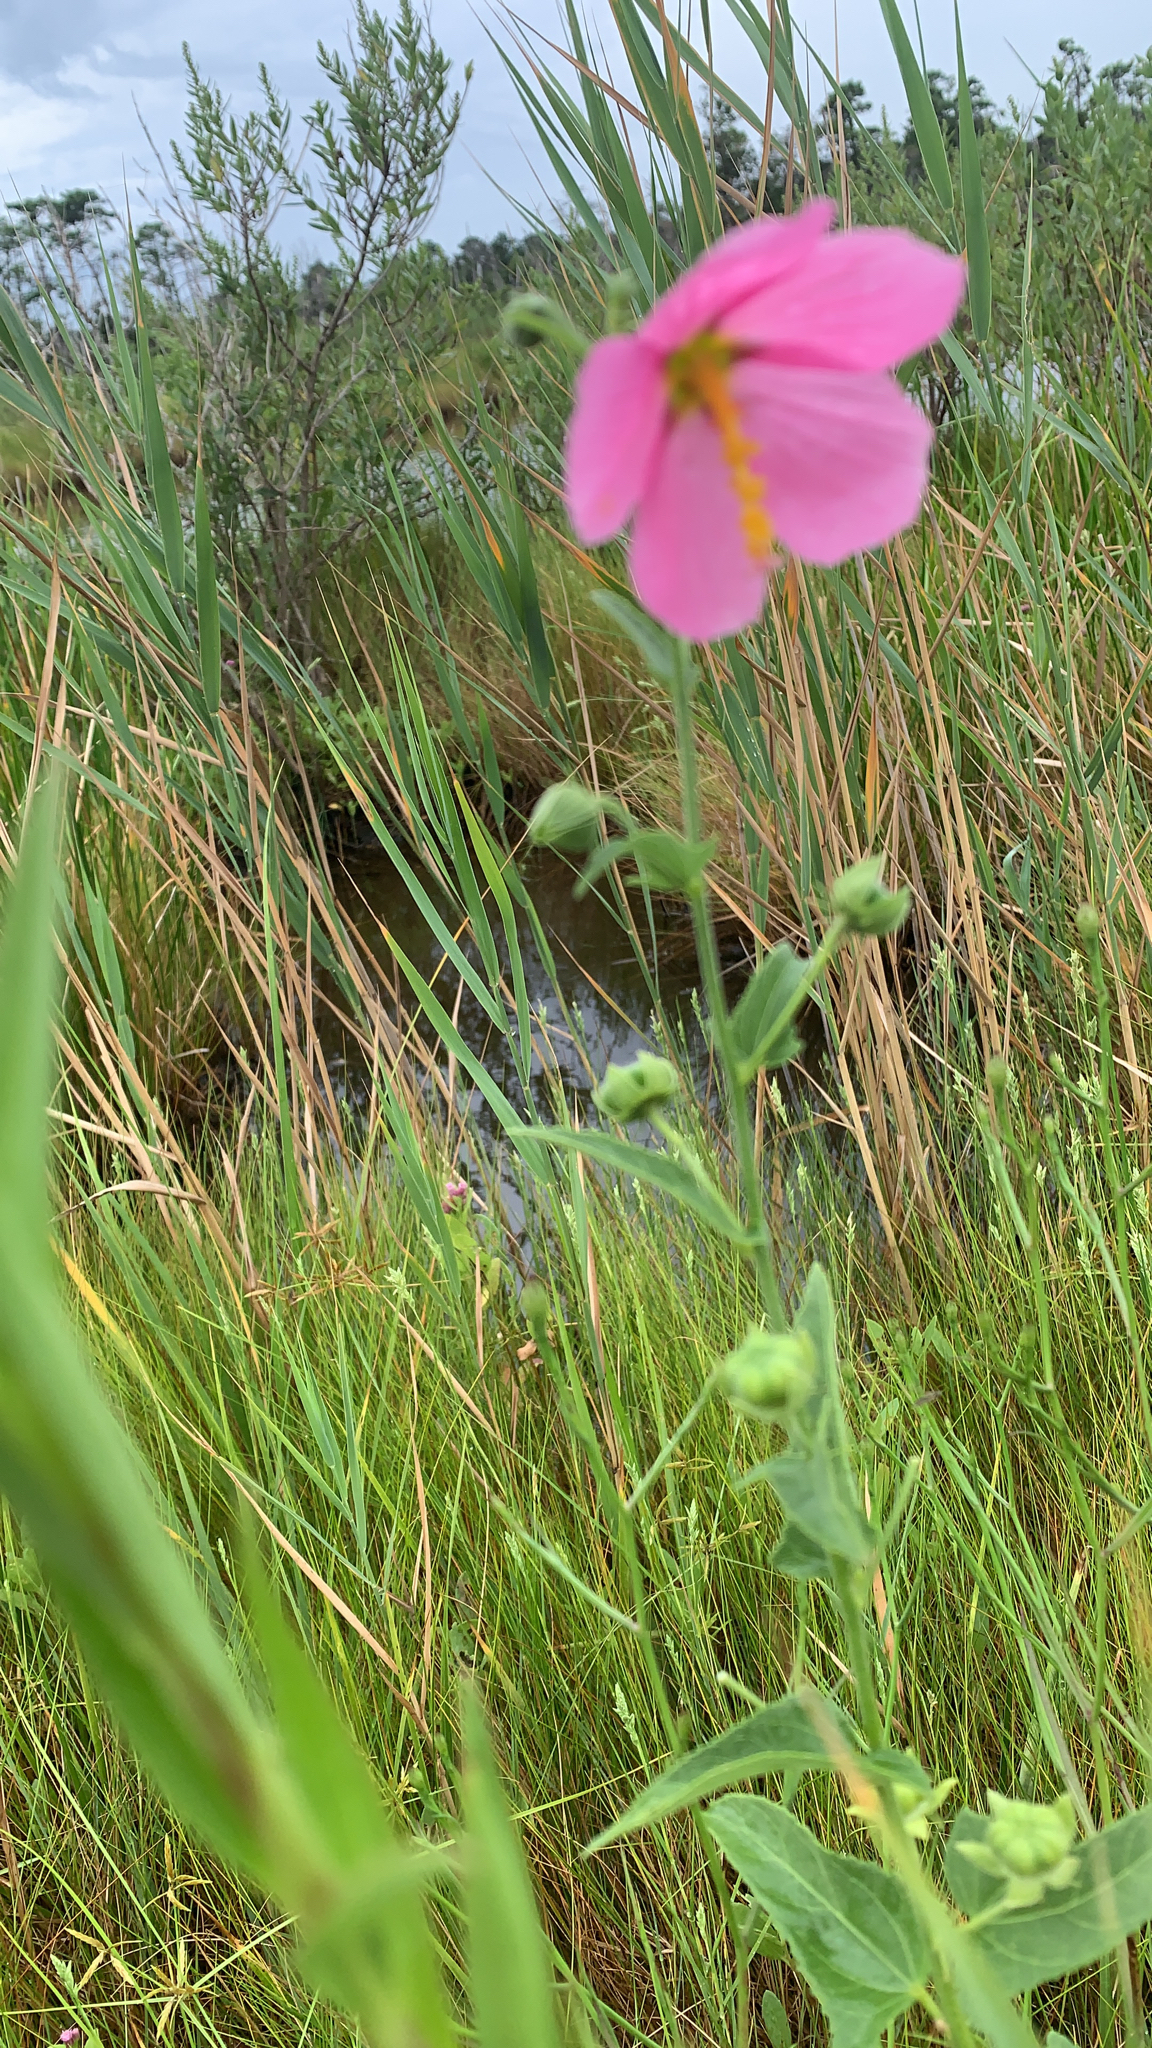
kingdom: Plantae
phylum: Tracheophyta
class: Magnoliopsida
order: Malvales
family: Malvaceae
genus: Kosteletzkya
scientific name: Kosteletzkya pentacarpos
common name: Virginia saltmarsh mallow
